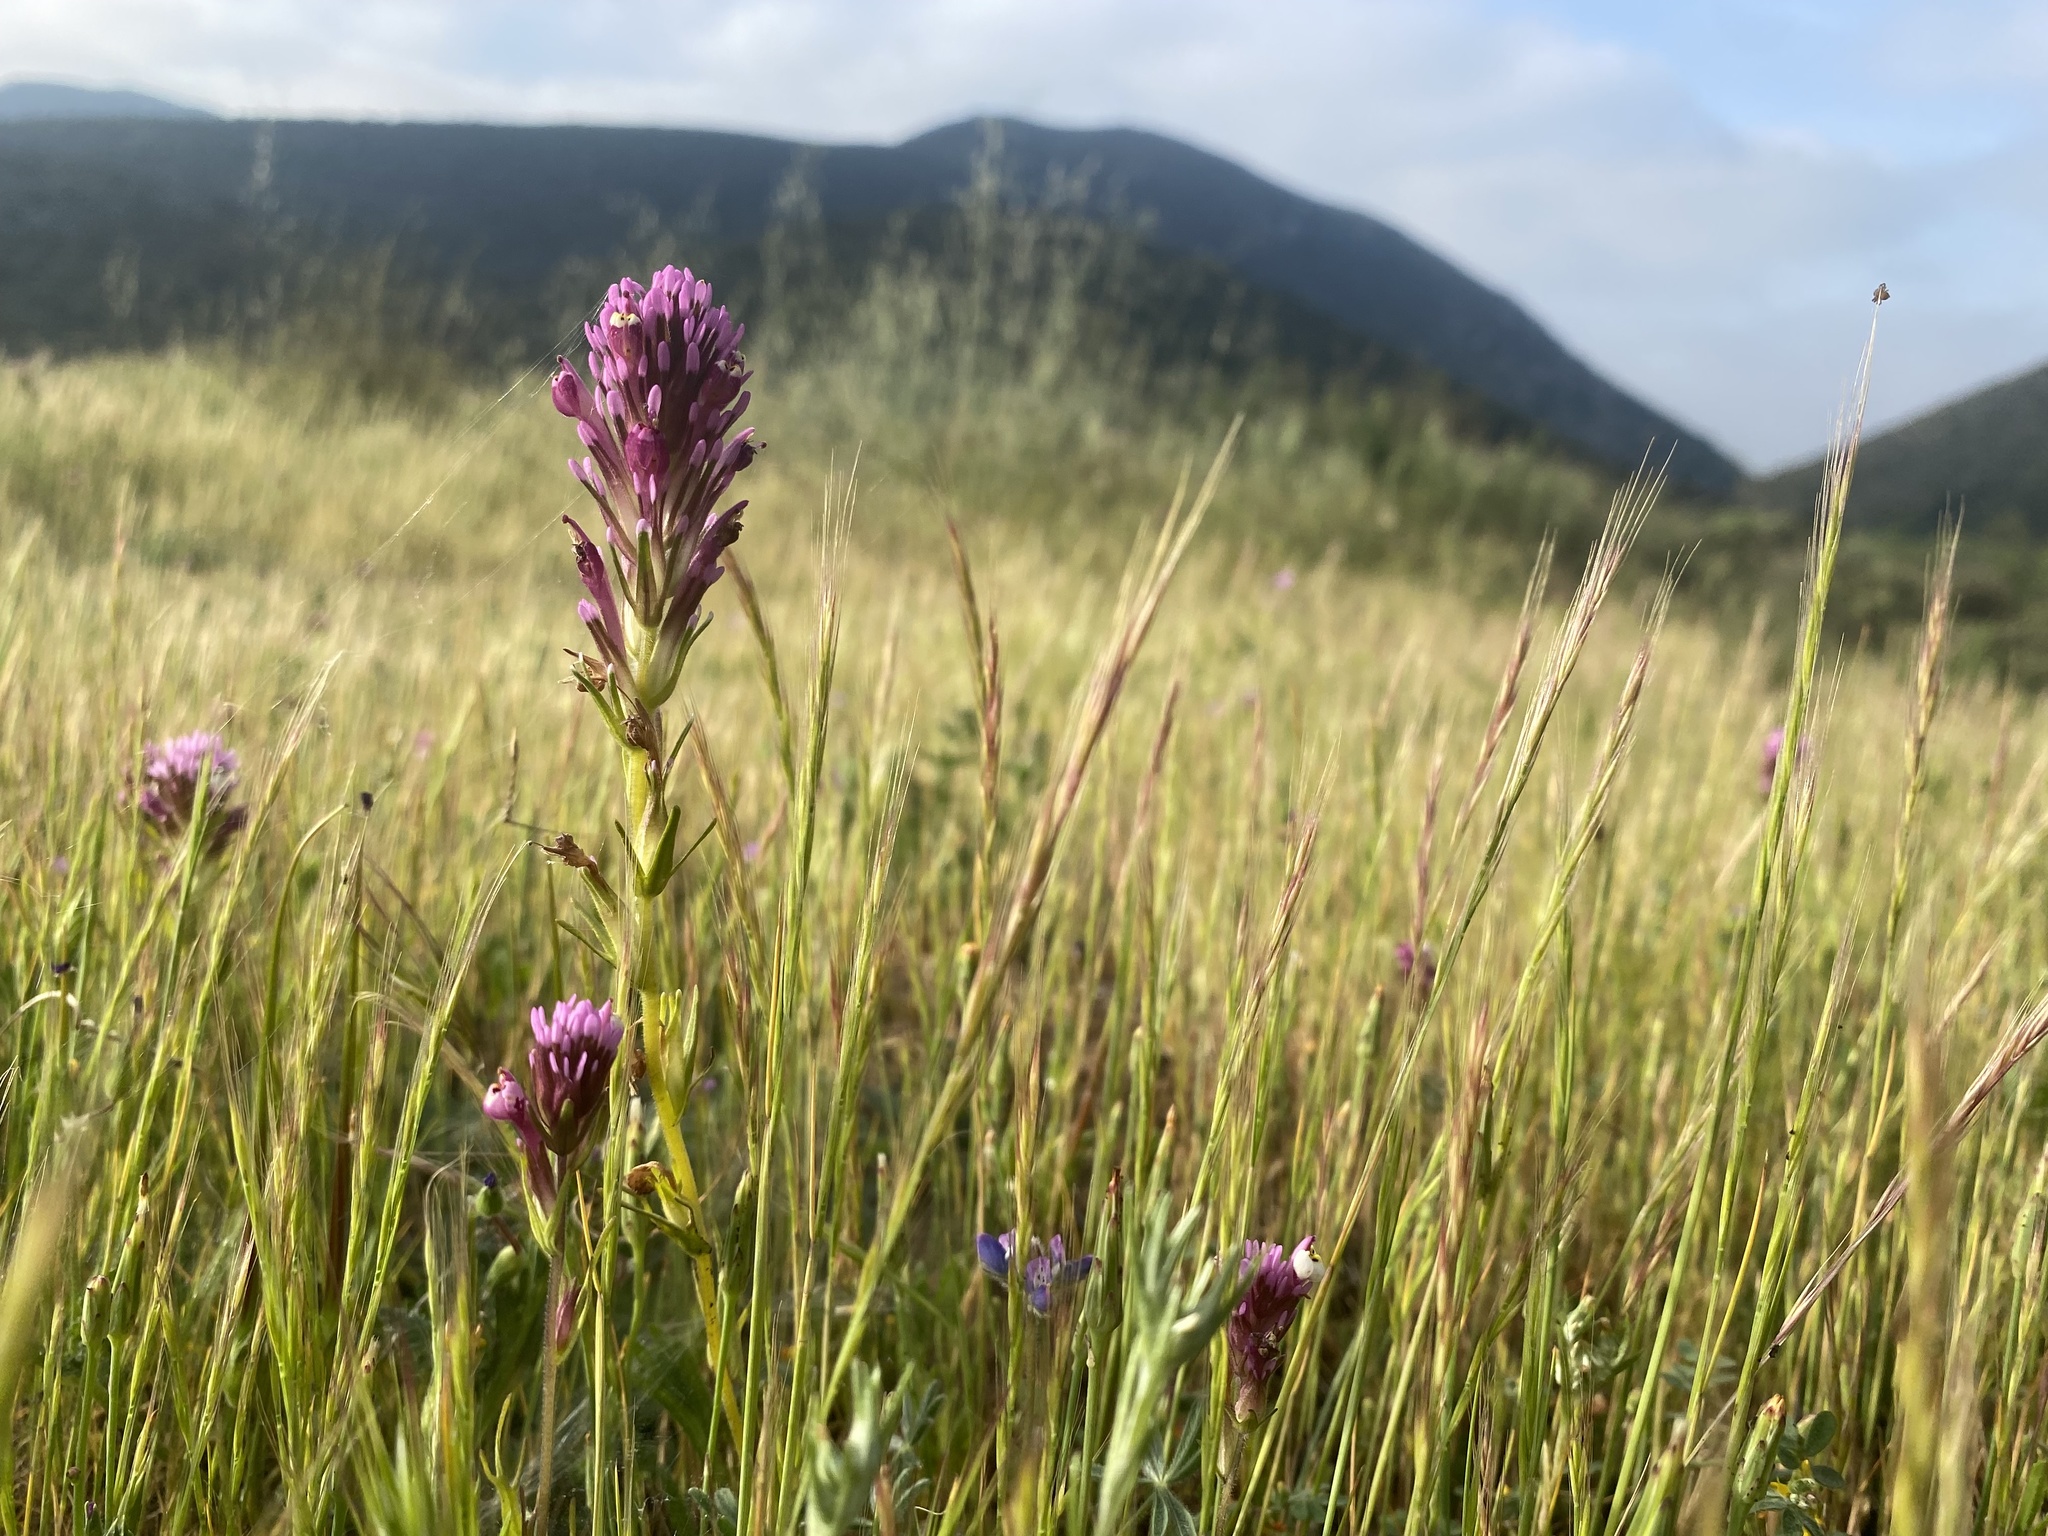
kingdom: Plantae
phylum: Tracheophyta
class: Magnoliopsida
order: Lamiales
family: Orobanchaceae
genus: Castilleja
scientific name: Castilleja densiflora
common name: Dense-flower indian paintbrush
